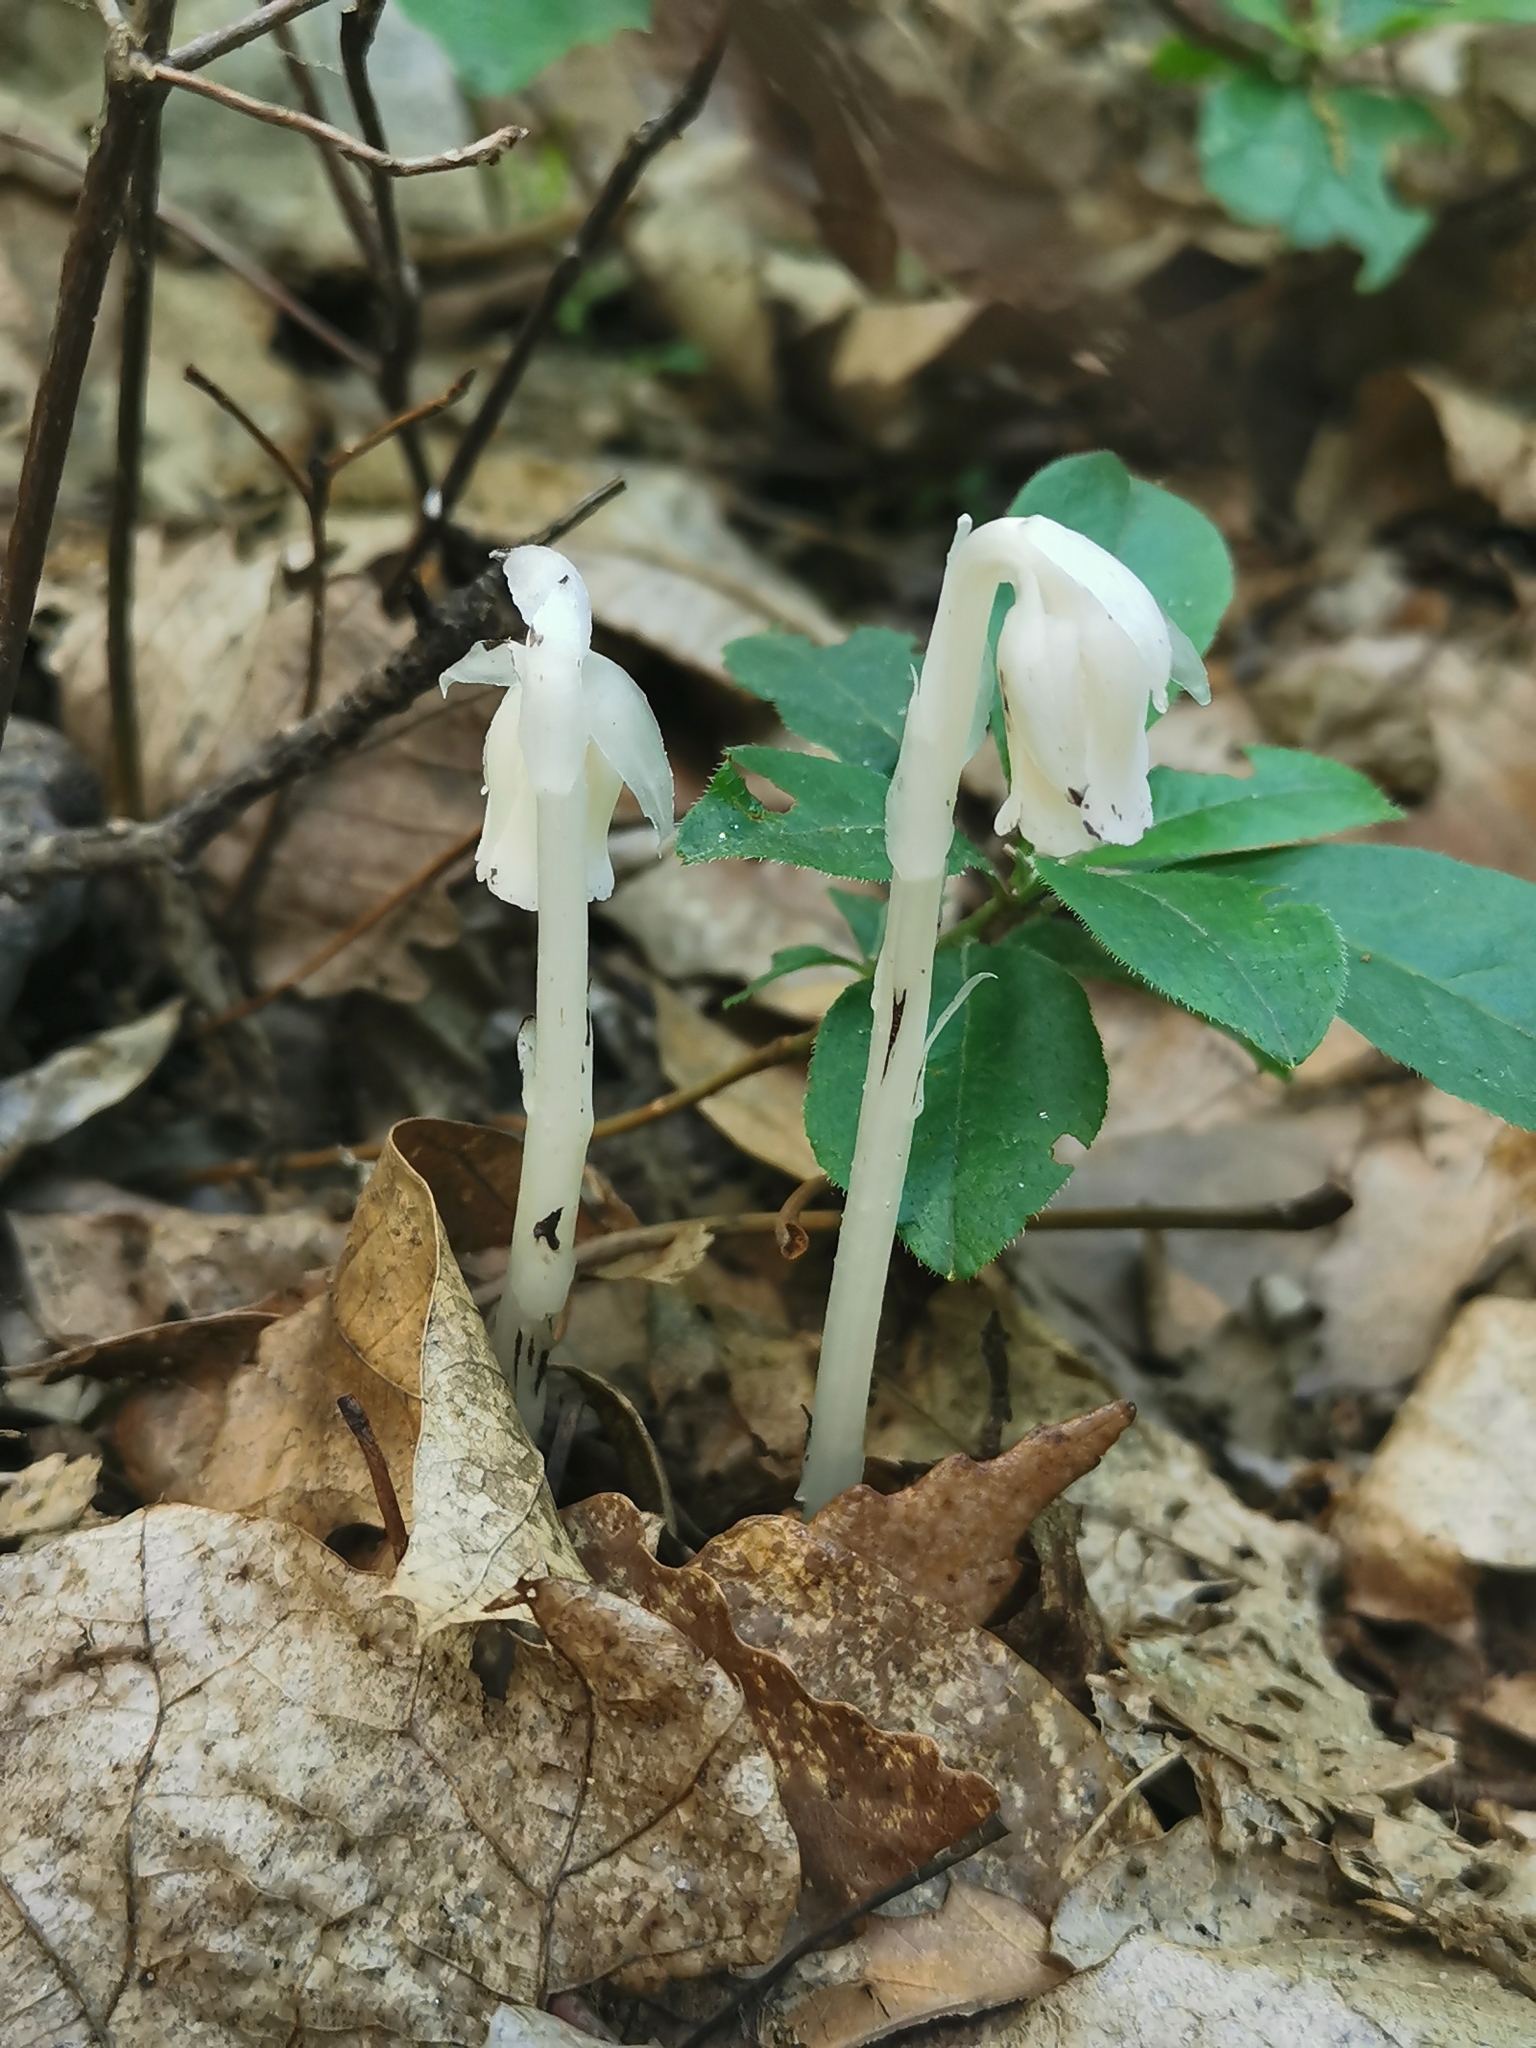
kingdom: Plantae
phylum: Tracheophyta
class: Magnoliopsida
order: Ericales
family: Ericaceae
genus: Monotropa
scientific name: Monotropa uniflora
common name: Convulsion root
